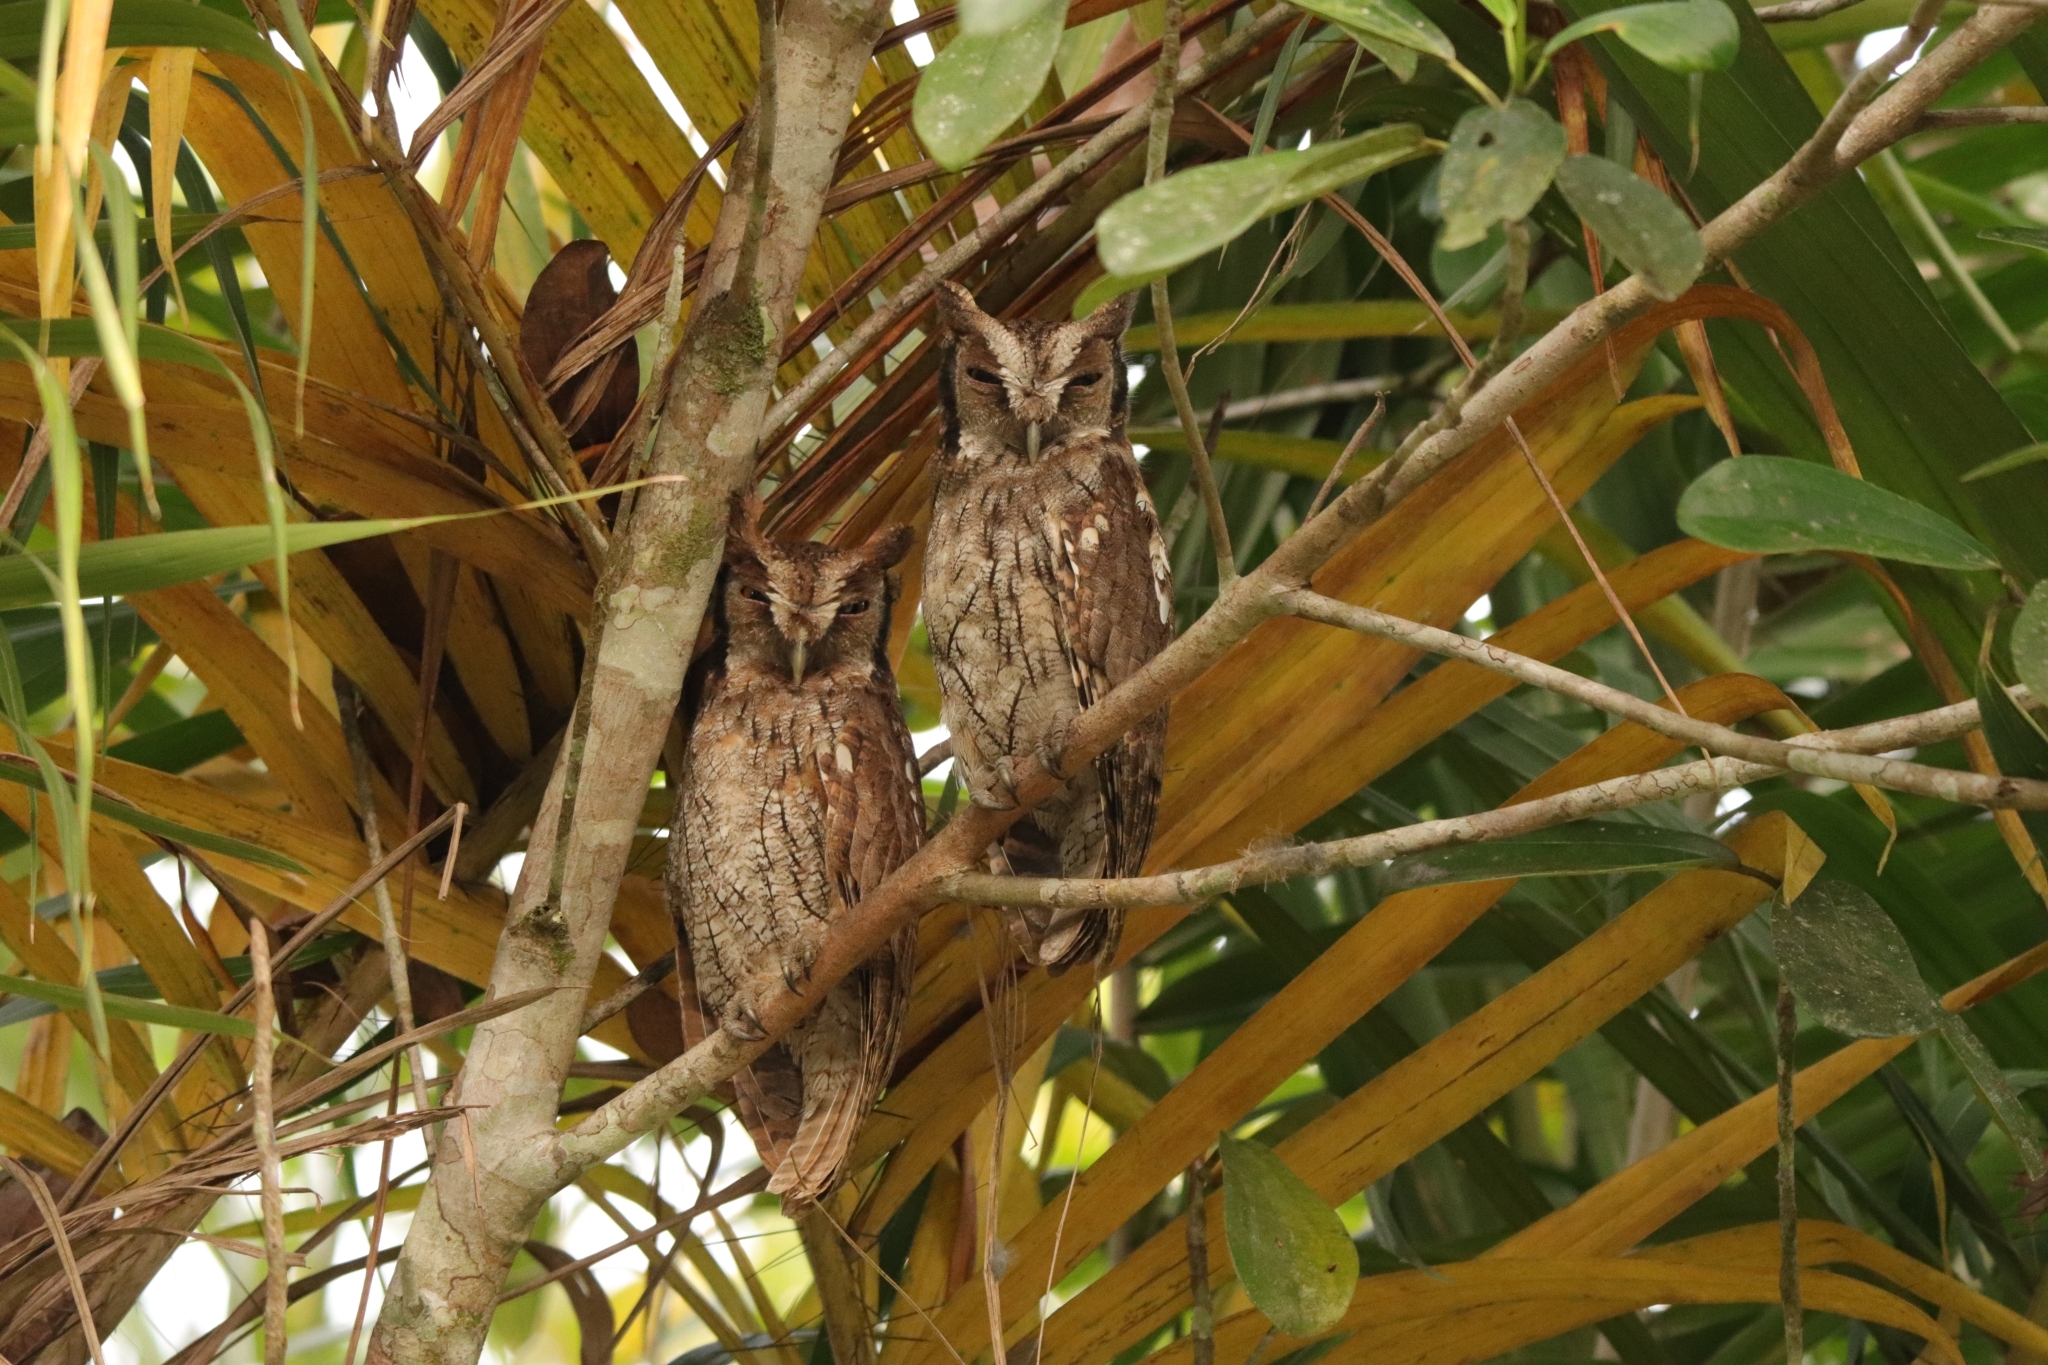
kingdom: Animalia
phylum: Chordata
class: Aves
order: Strigiformes
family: Strigidae
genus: Megascops
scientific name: Megascops choliba
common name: Tropical screech-owl
